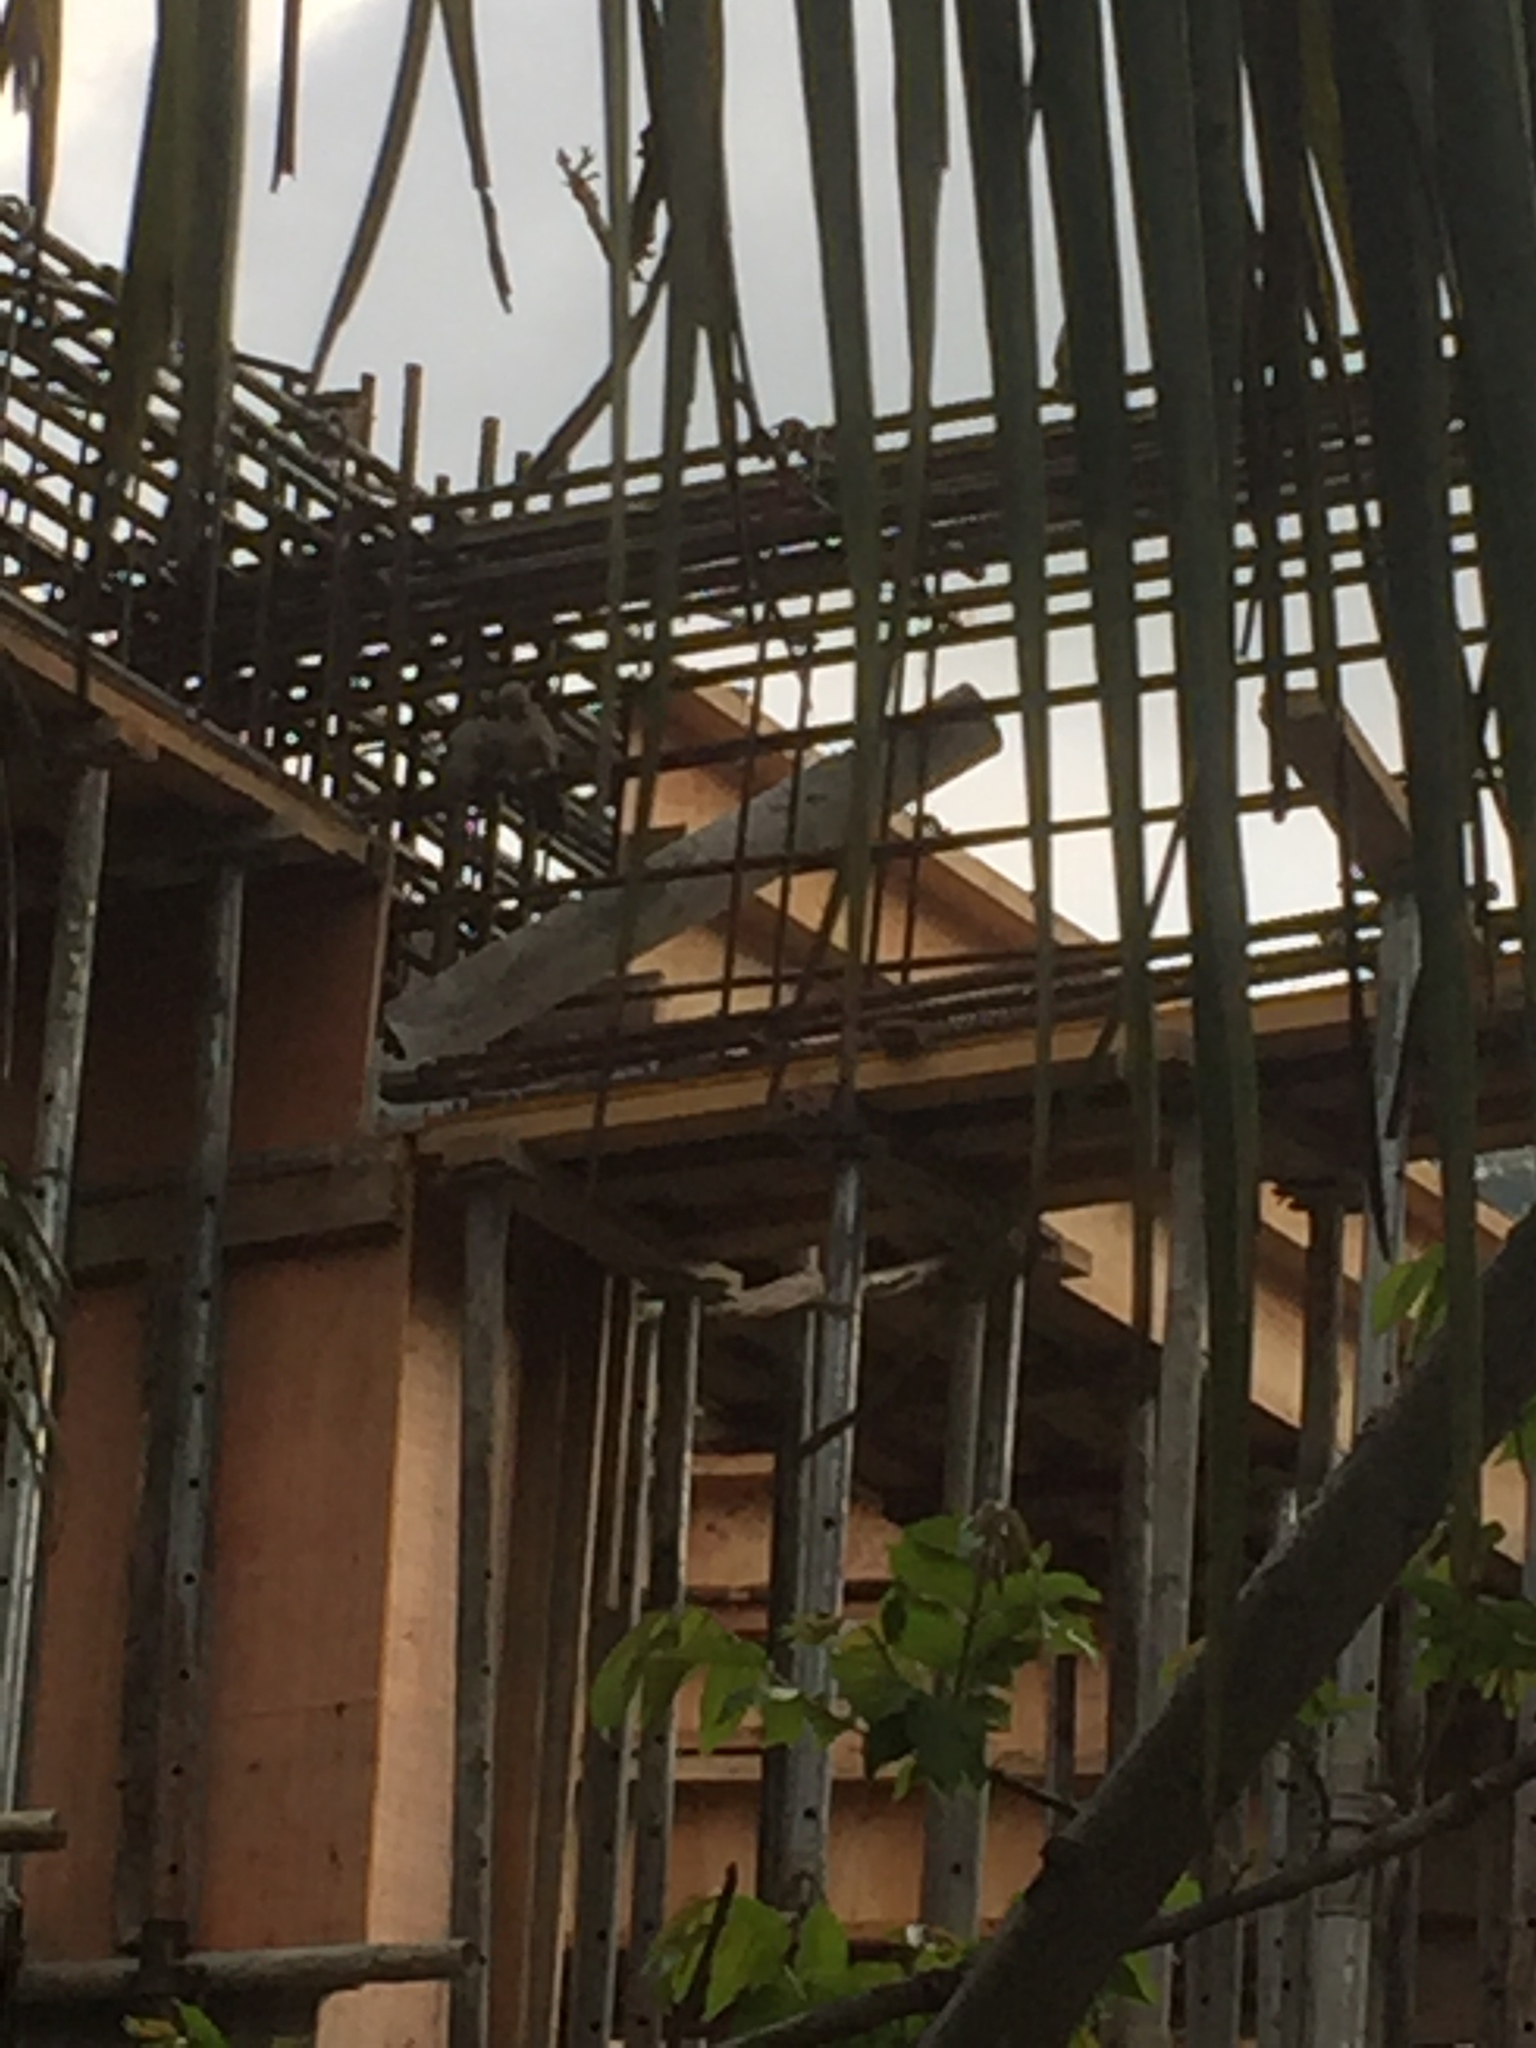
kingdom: Animalia
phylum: Chordata
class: Aves
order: Passeriformes
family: Leiothrichidae
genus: Turdoides
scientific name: Turdoides affinis
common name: Yellow-billed babbler
